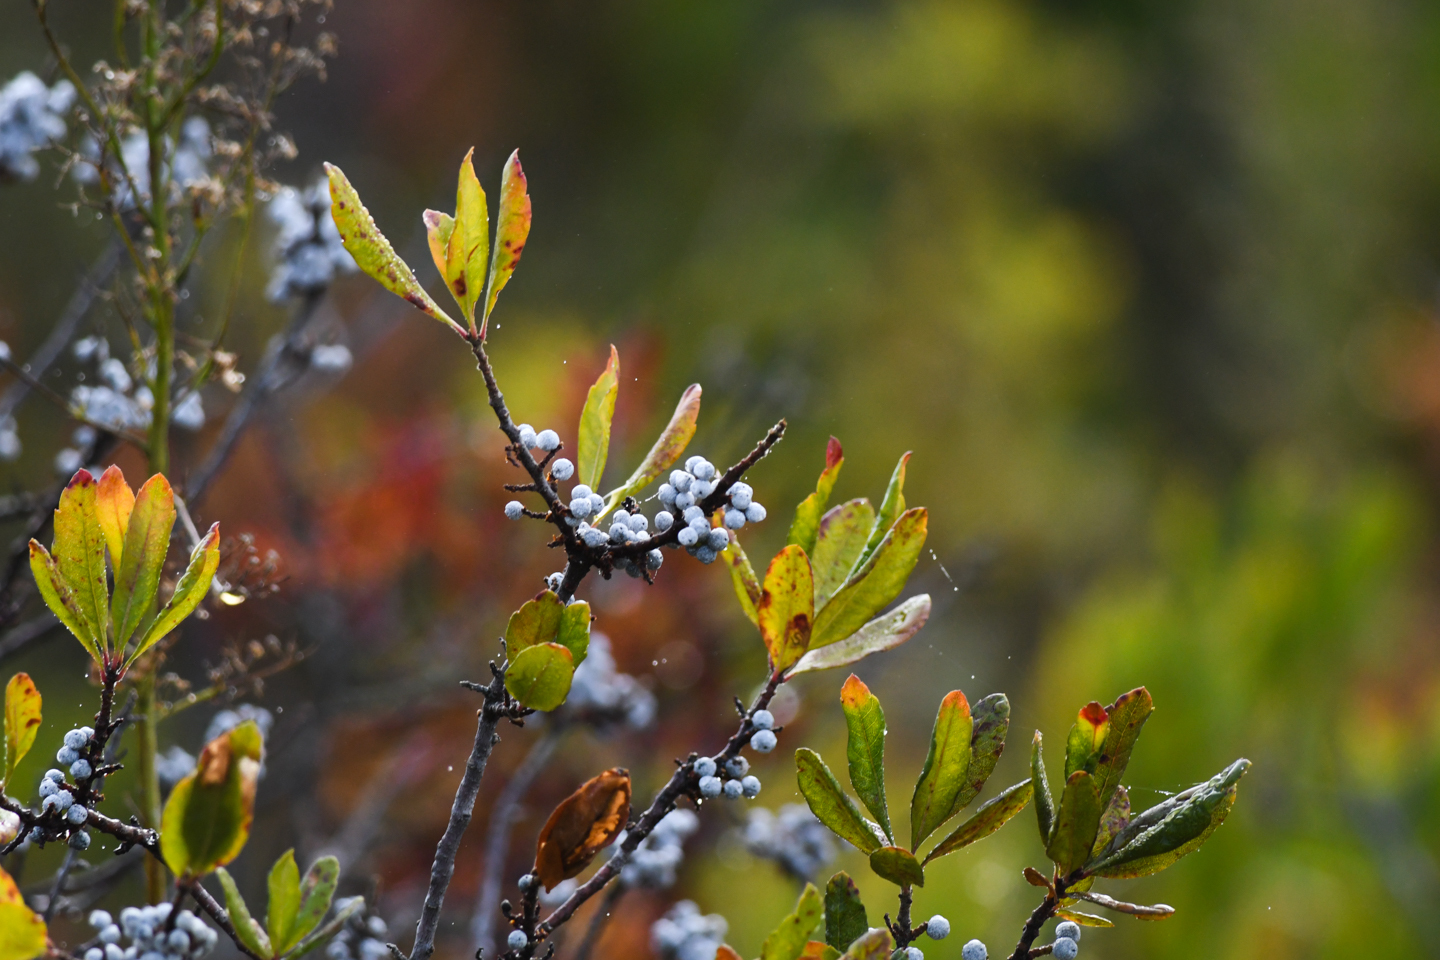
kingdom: Plantae
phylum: Tracheophyta
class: Magnoliopsida
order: Fagales
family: Myricaceae
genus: Morella
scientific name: Morella pensylvanica
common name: Northern bayberry
